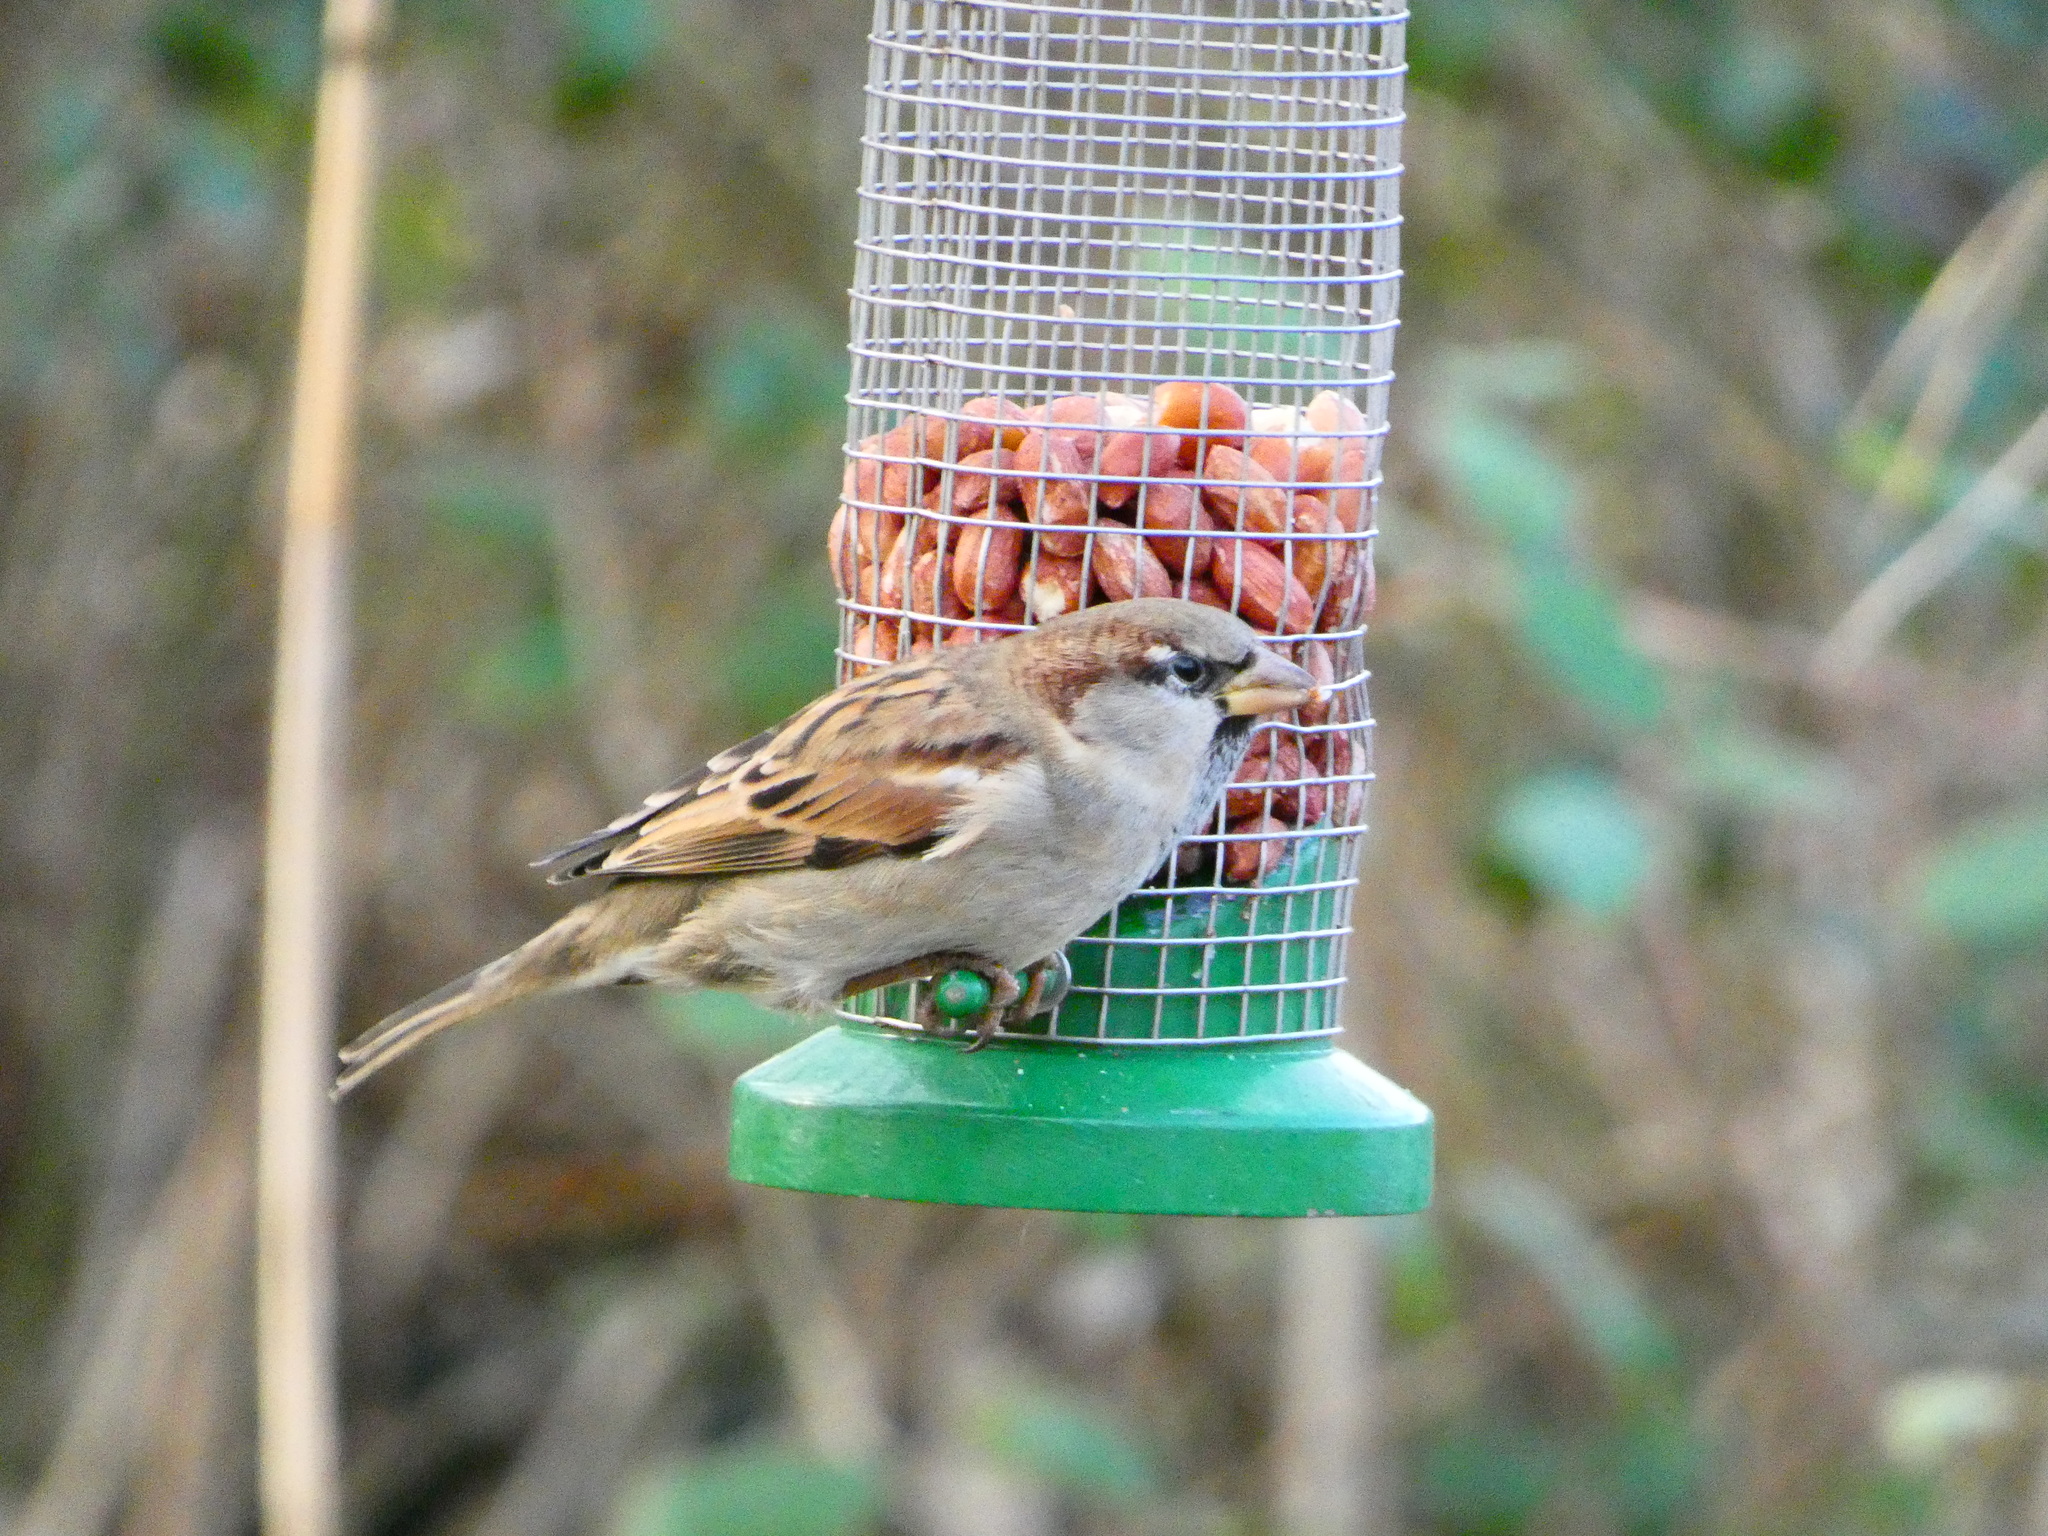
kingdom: Animalia
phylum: Chordata
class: Aves
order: Passeriformes
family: Passeridae
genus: Passer
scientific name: Passer domesticus
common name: House sparrow
